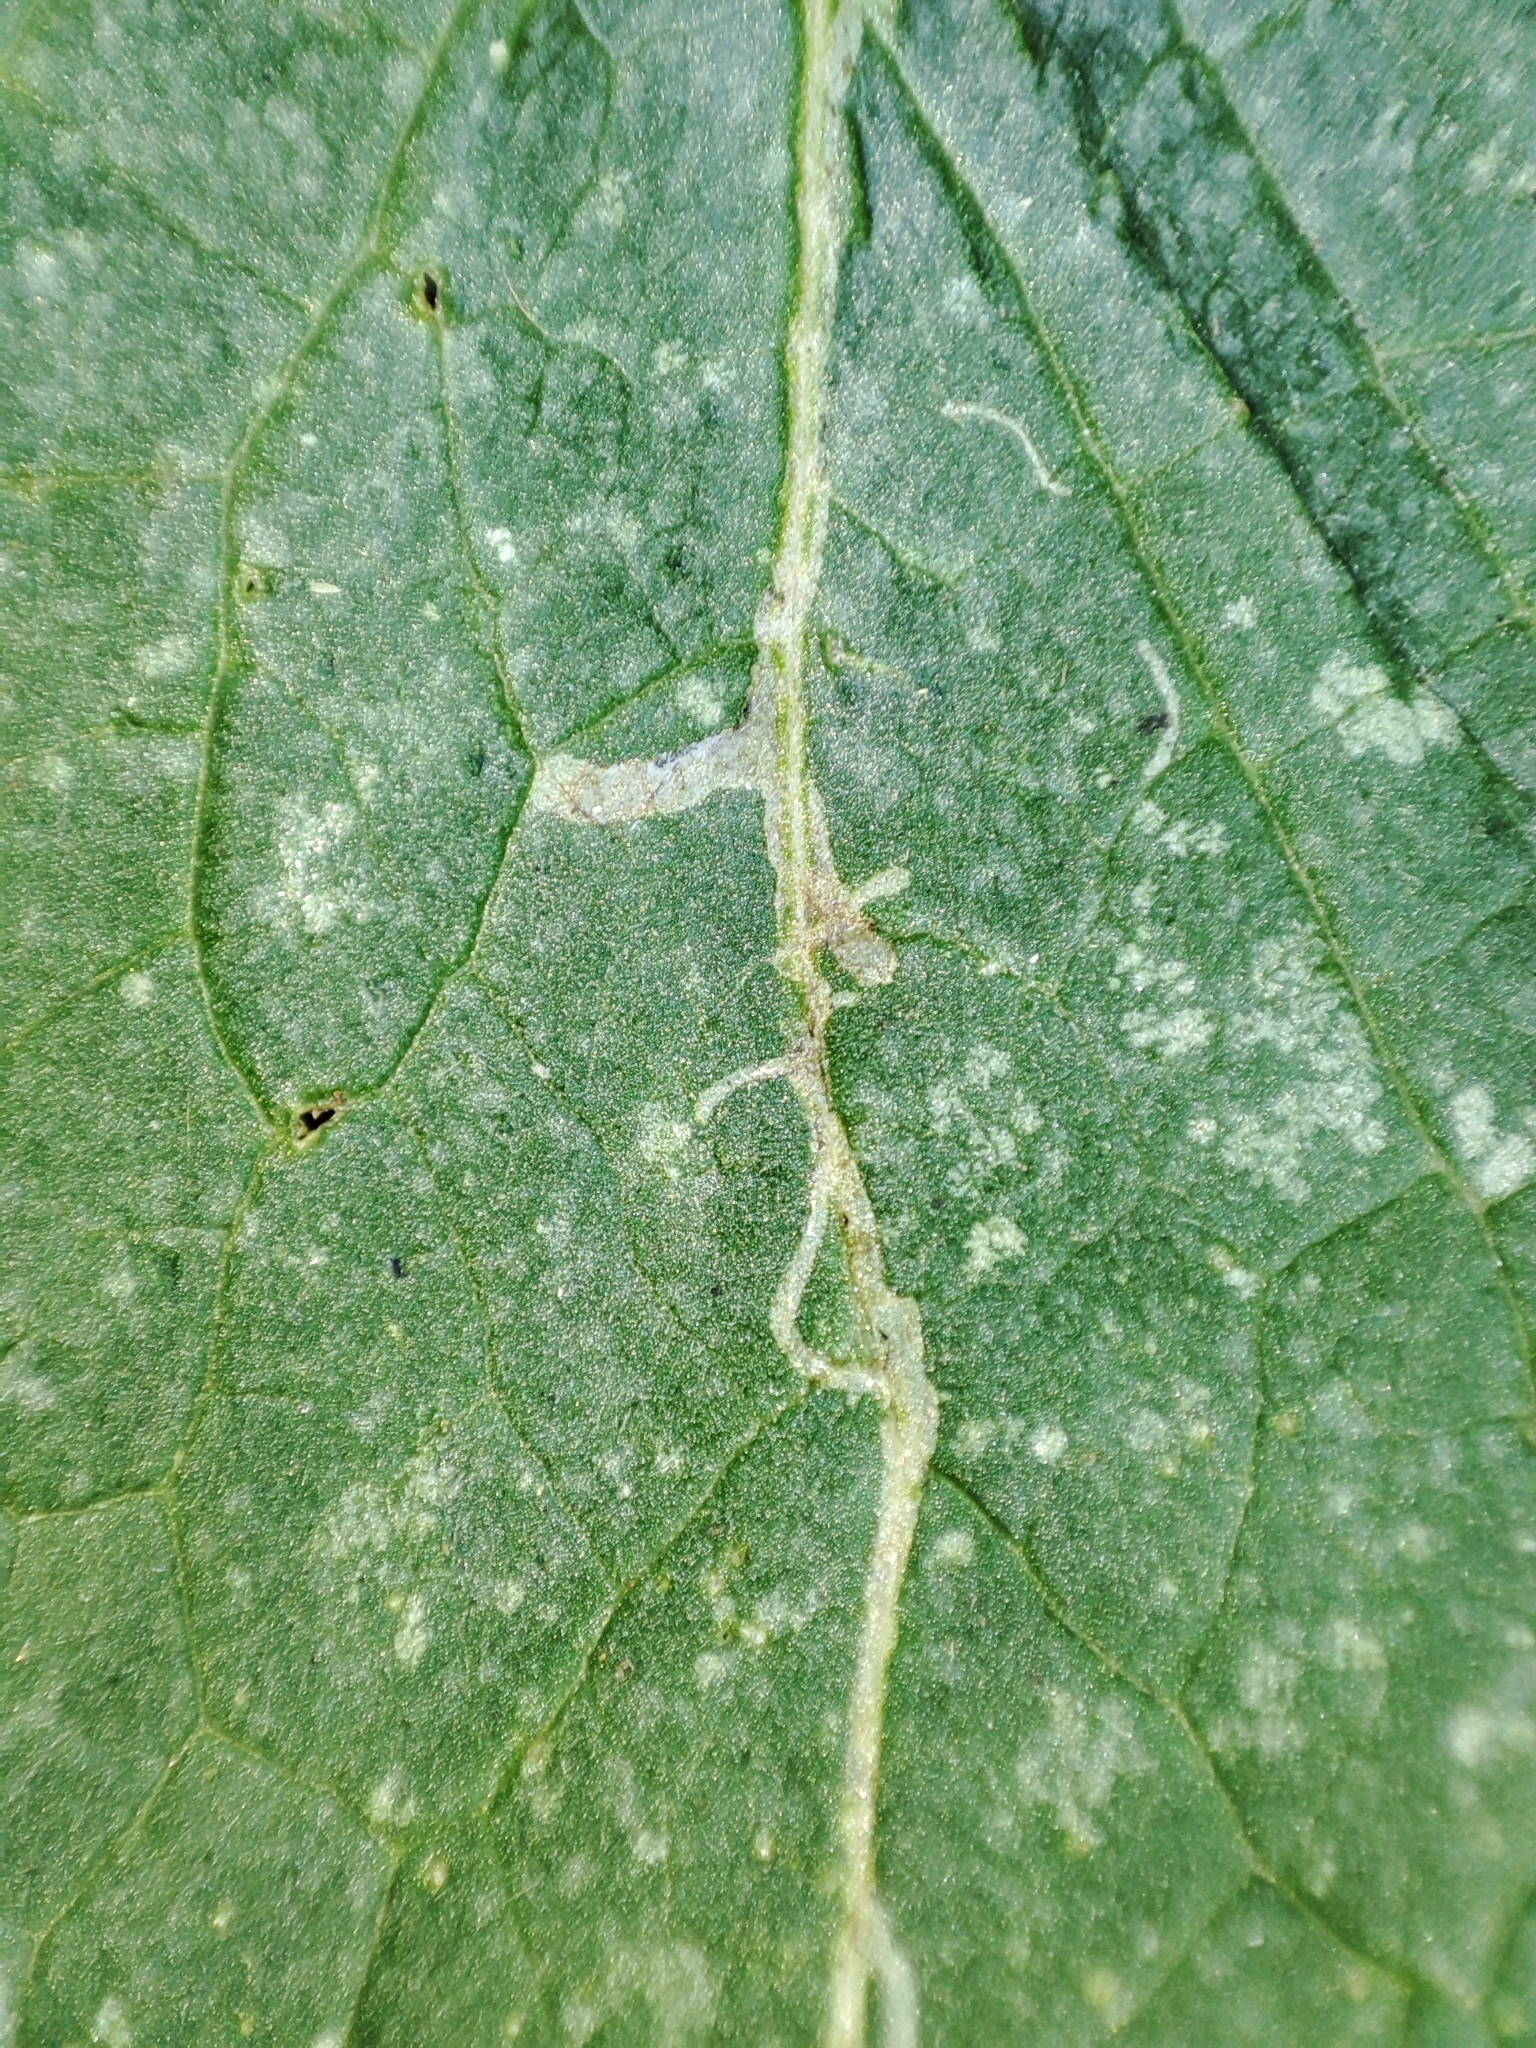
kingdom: Plantae
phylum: Tracheophyta
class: Magnoliopsida
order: Lamiales
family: Lamiaceae
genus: Lamium
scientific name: Lamium maculatum
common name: Spotted dead-nettle
